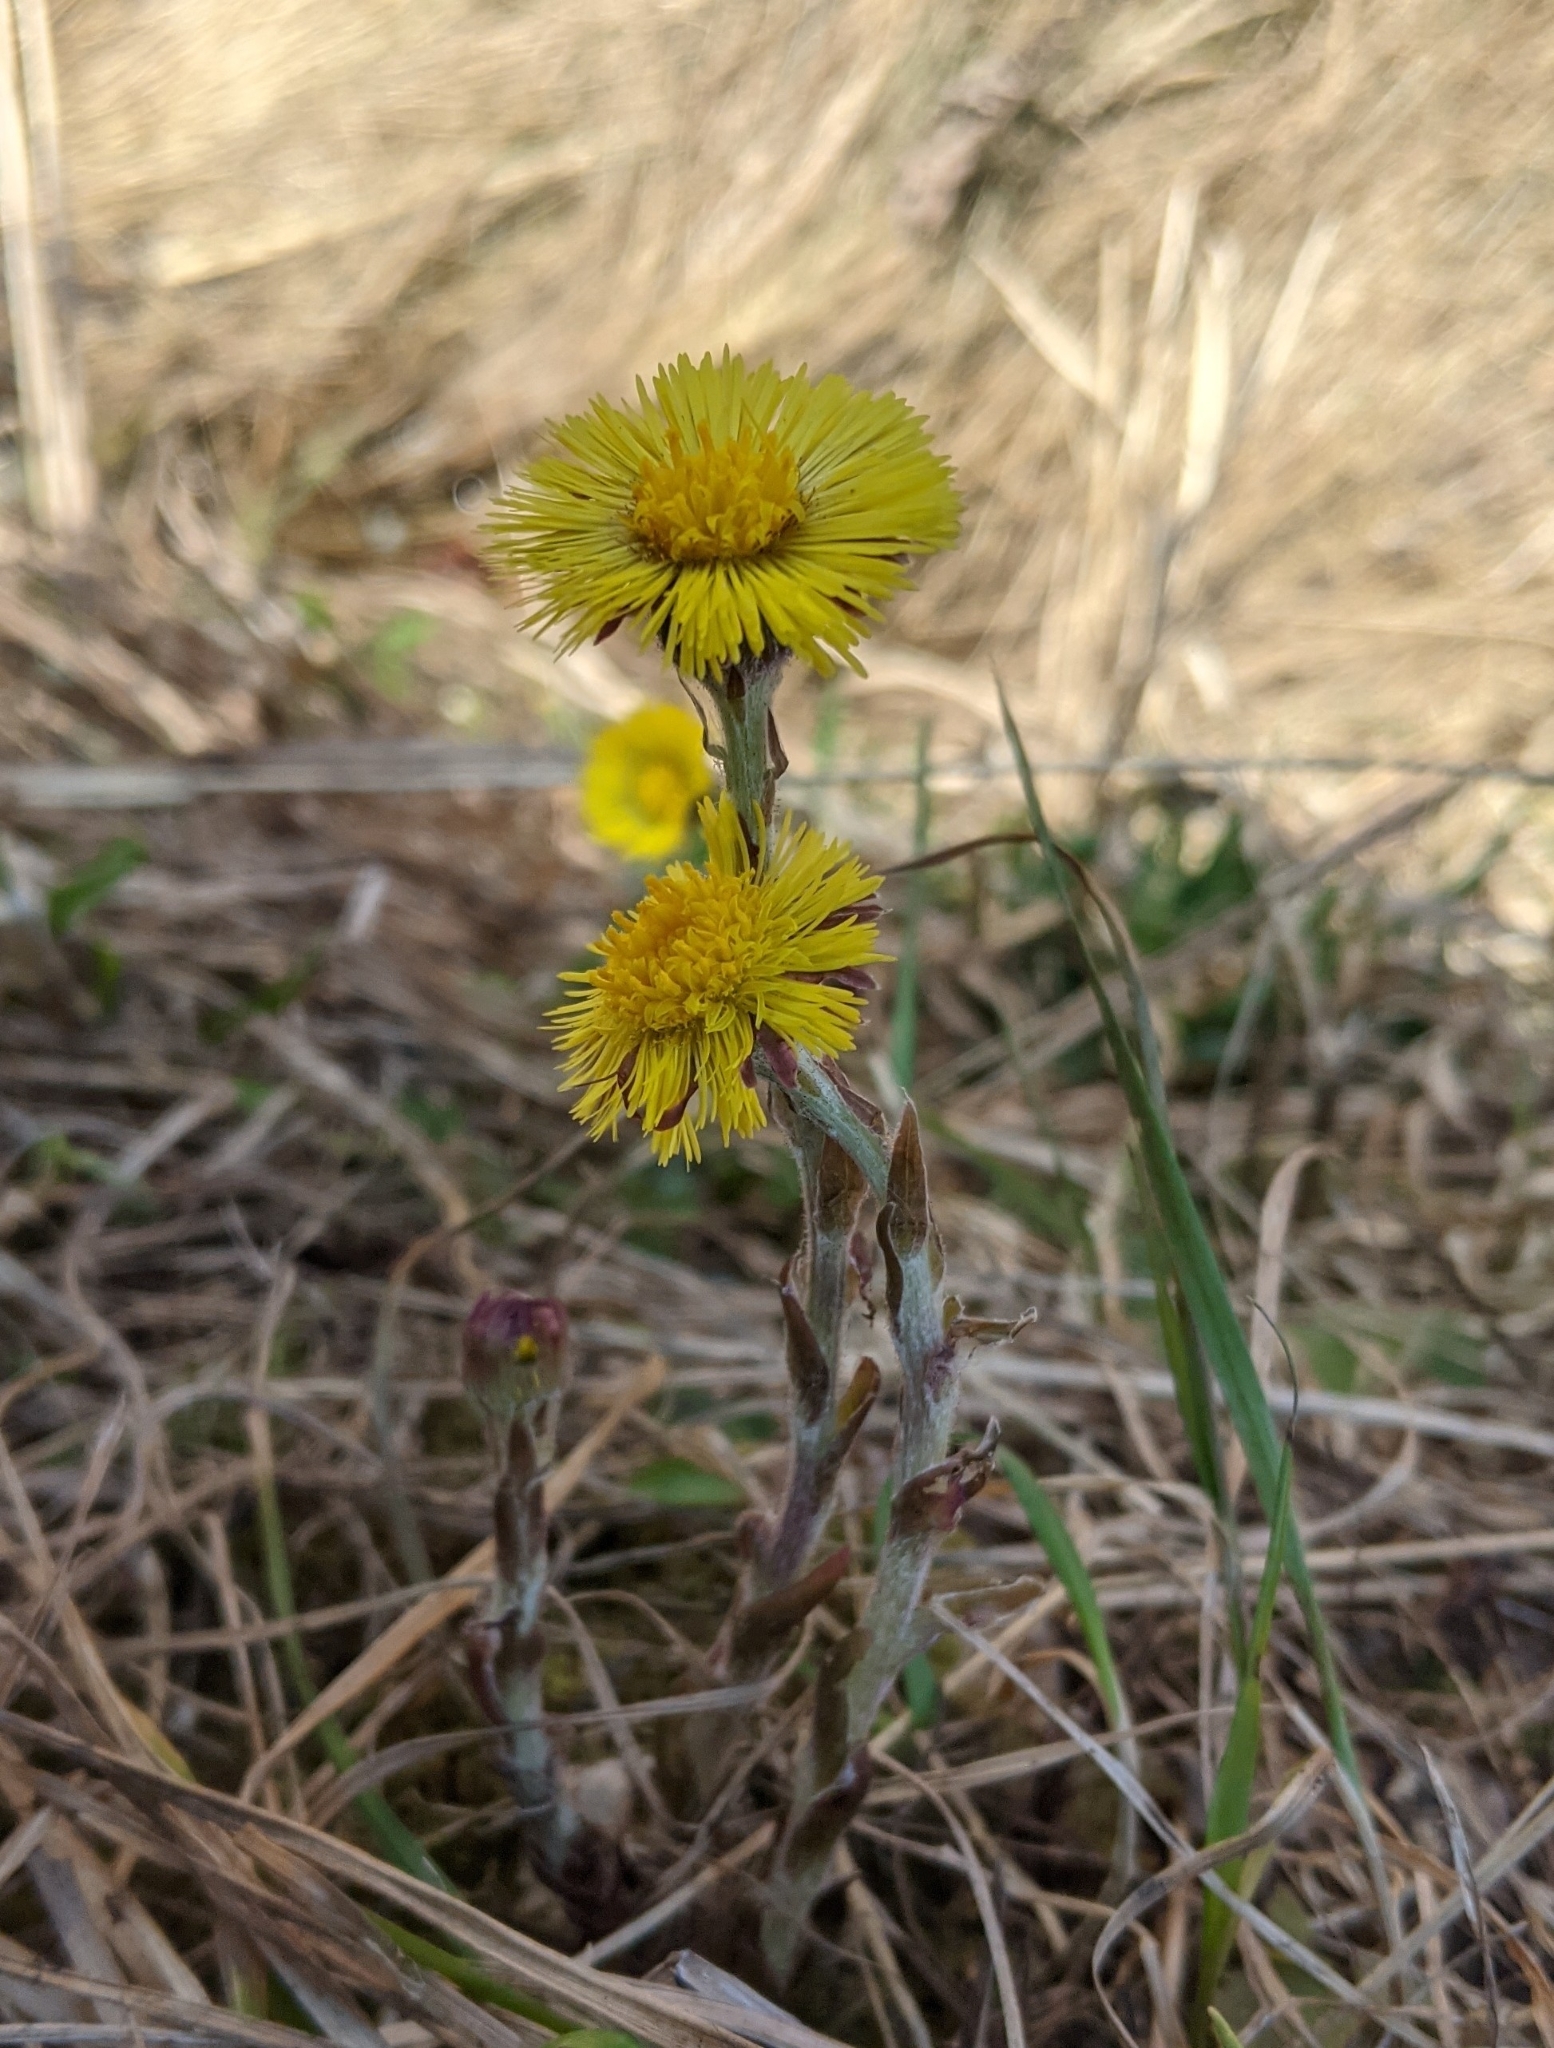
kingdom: Plantae
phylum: Tracheophyta
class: Magnoliopsida
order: Asterales
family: Asteraceae
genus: Tussilago
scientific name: Tussilago farfara
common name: Coltsfoot
